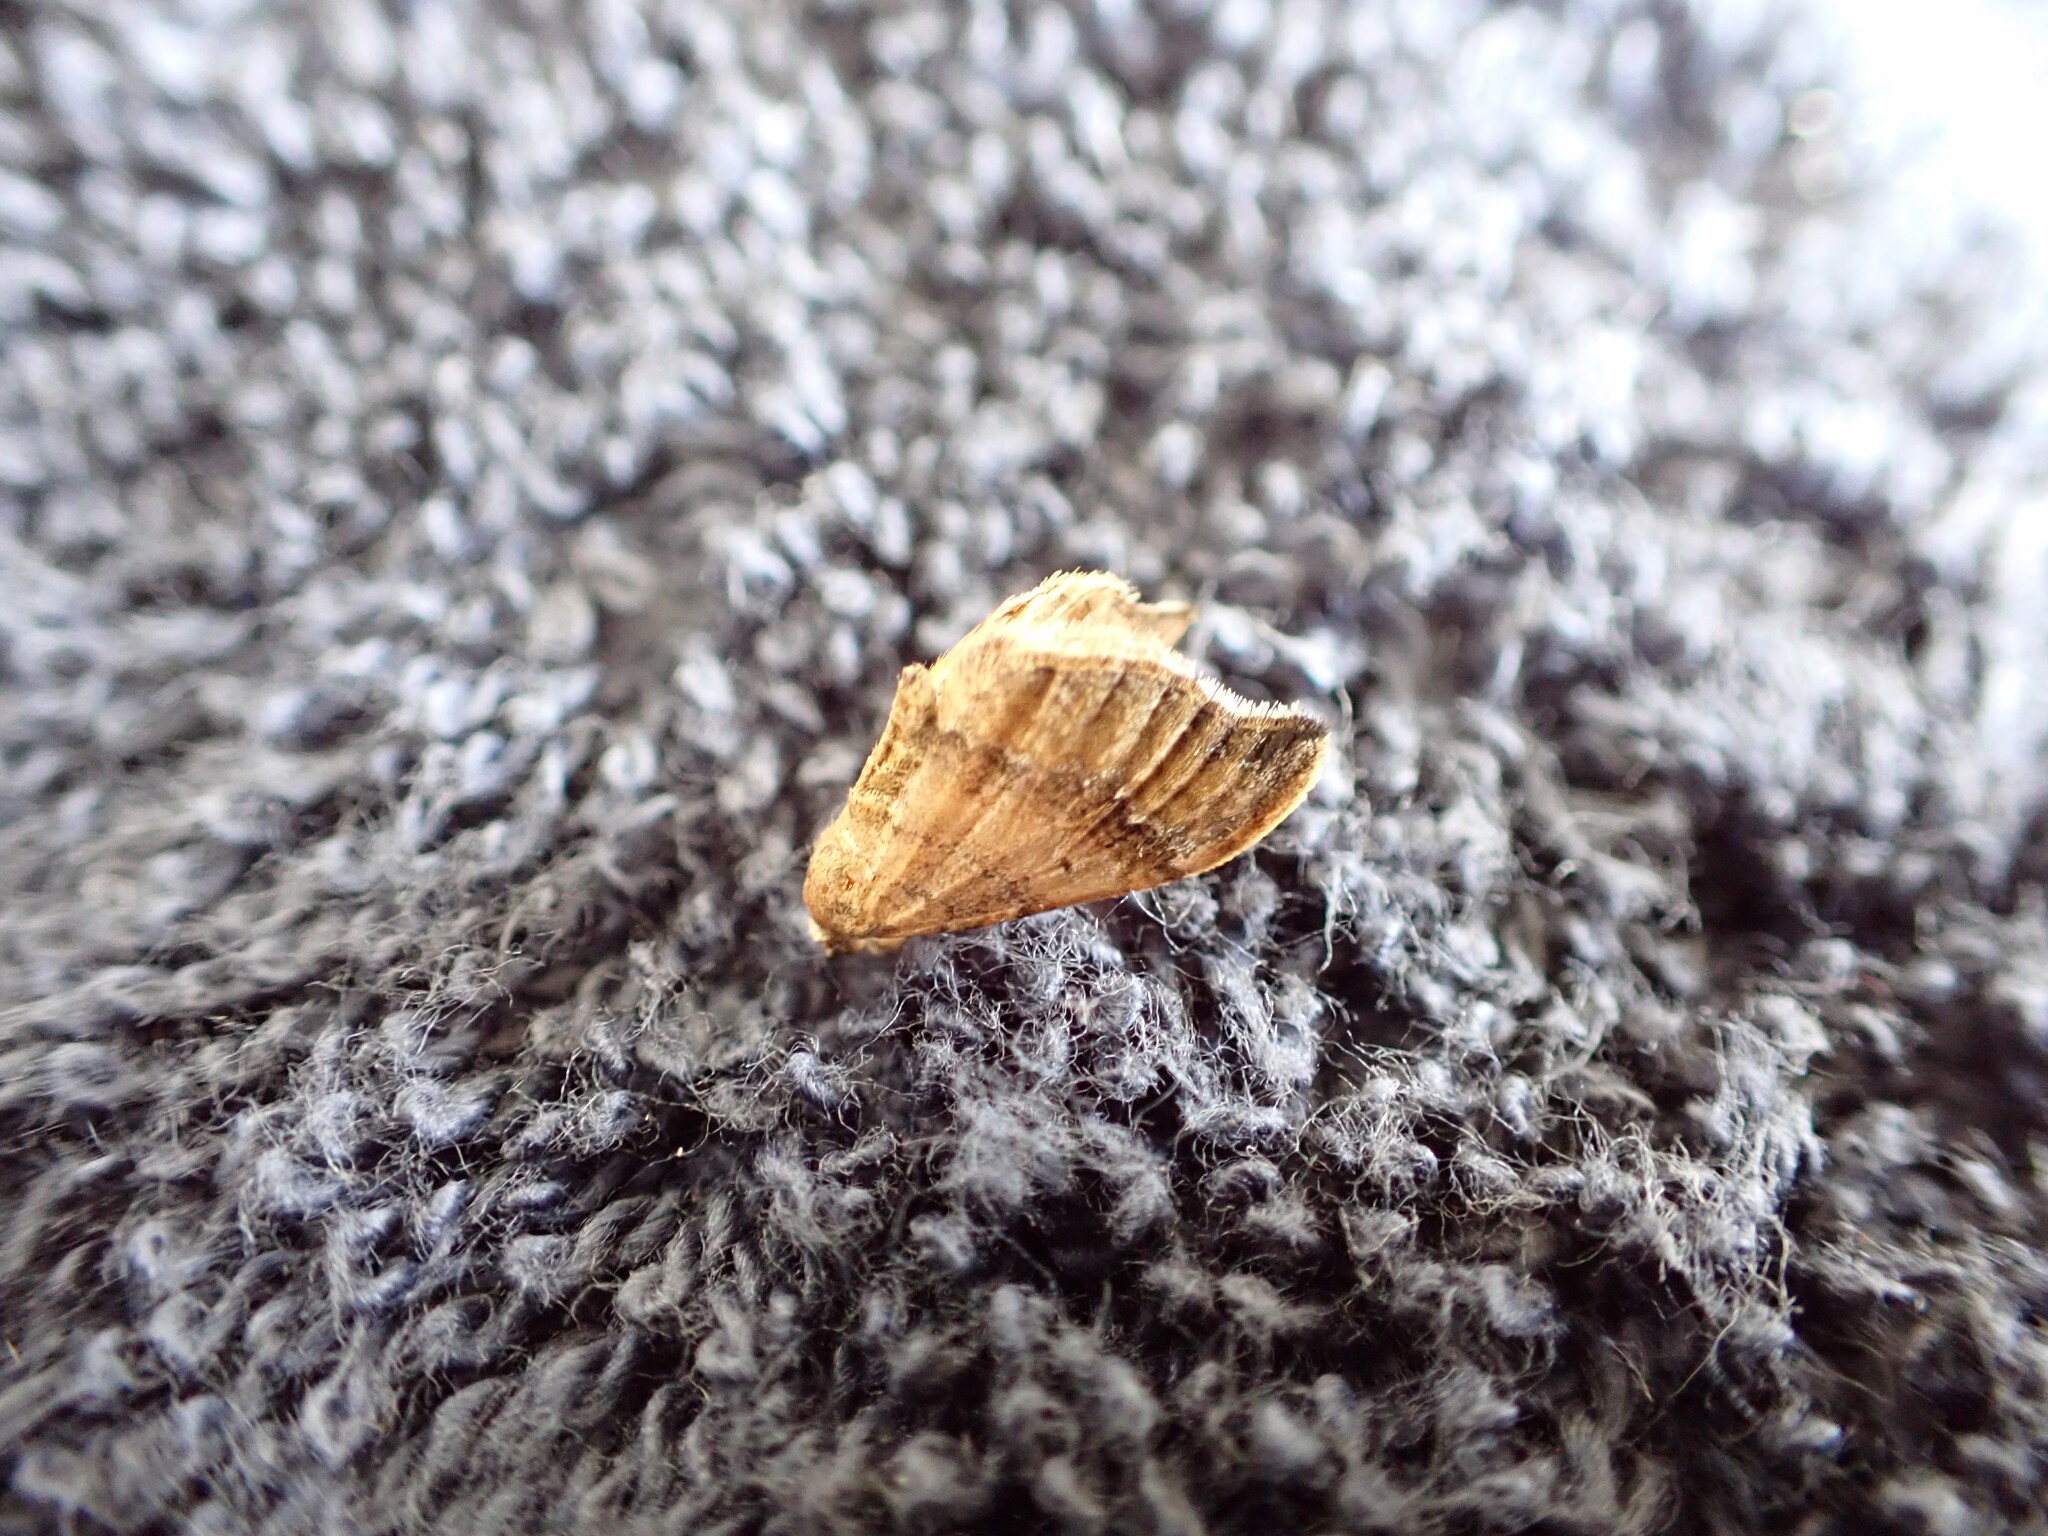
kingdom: Animalia
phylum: Arthropoda
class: Insecta
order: Lepidoptera
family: Geometridae
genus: Homodotis
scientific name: Homodotis megaspilata
